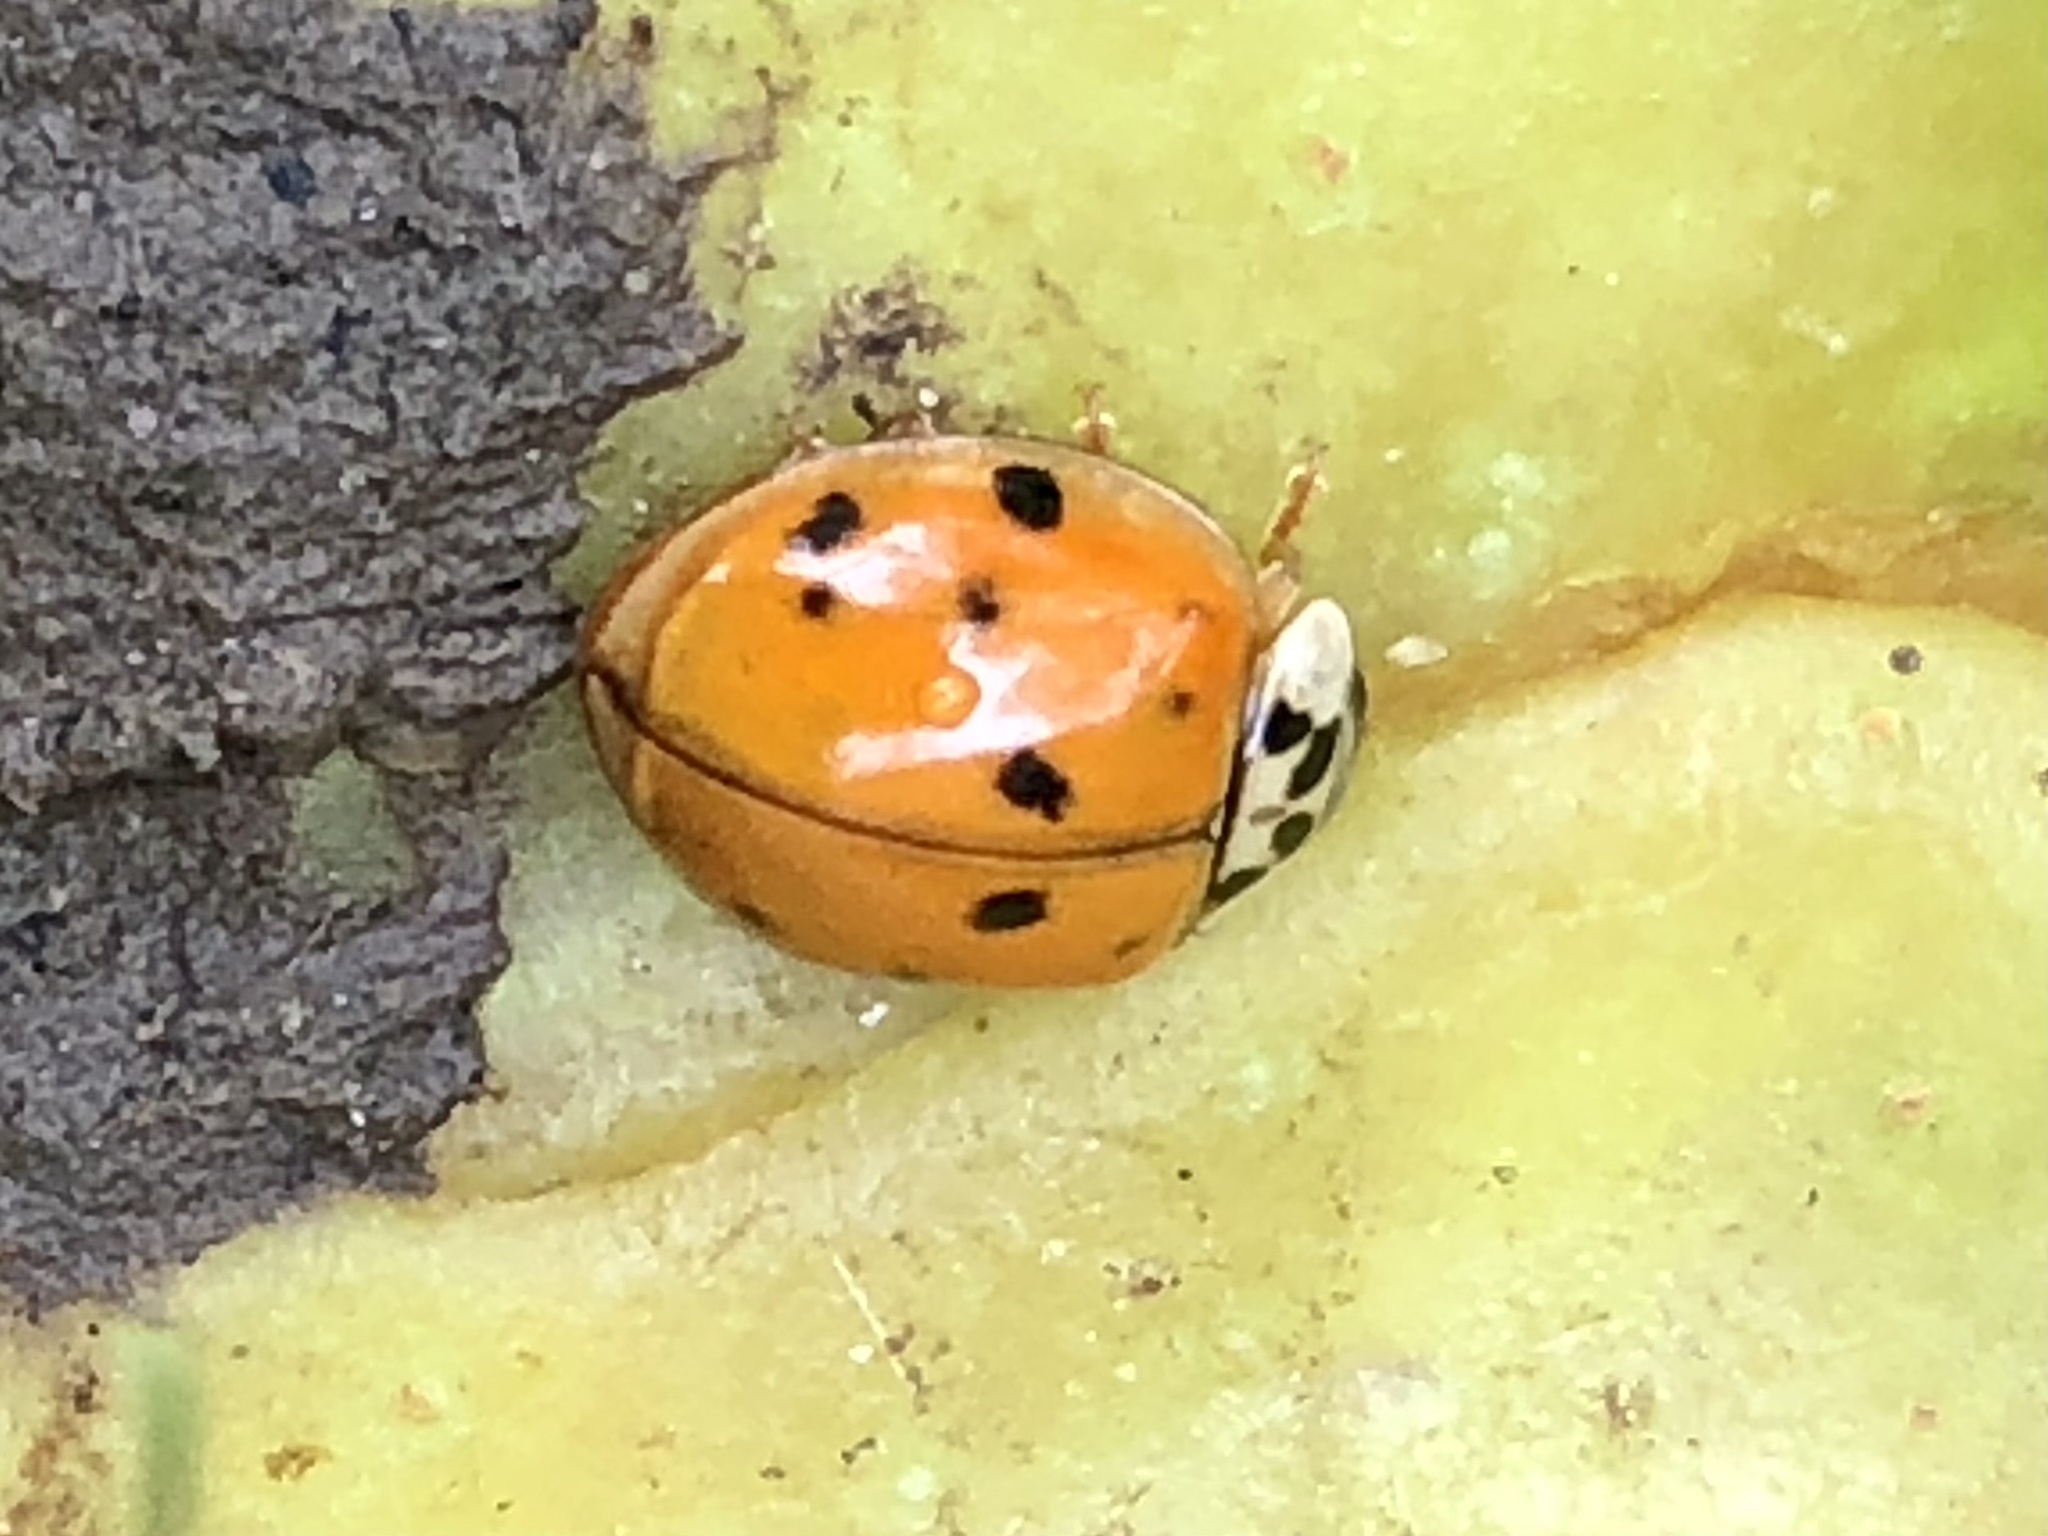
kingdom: Animalia
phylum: Arthropoda
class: Insecta
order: Coleoptera
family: Coccinellidae
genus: Harmonia
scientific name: Harmonia axyridis
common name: Harlequin ladybird
